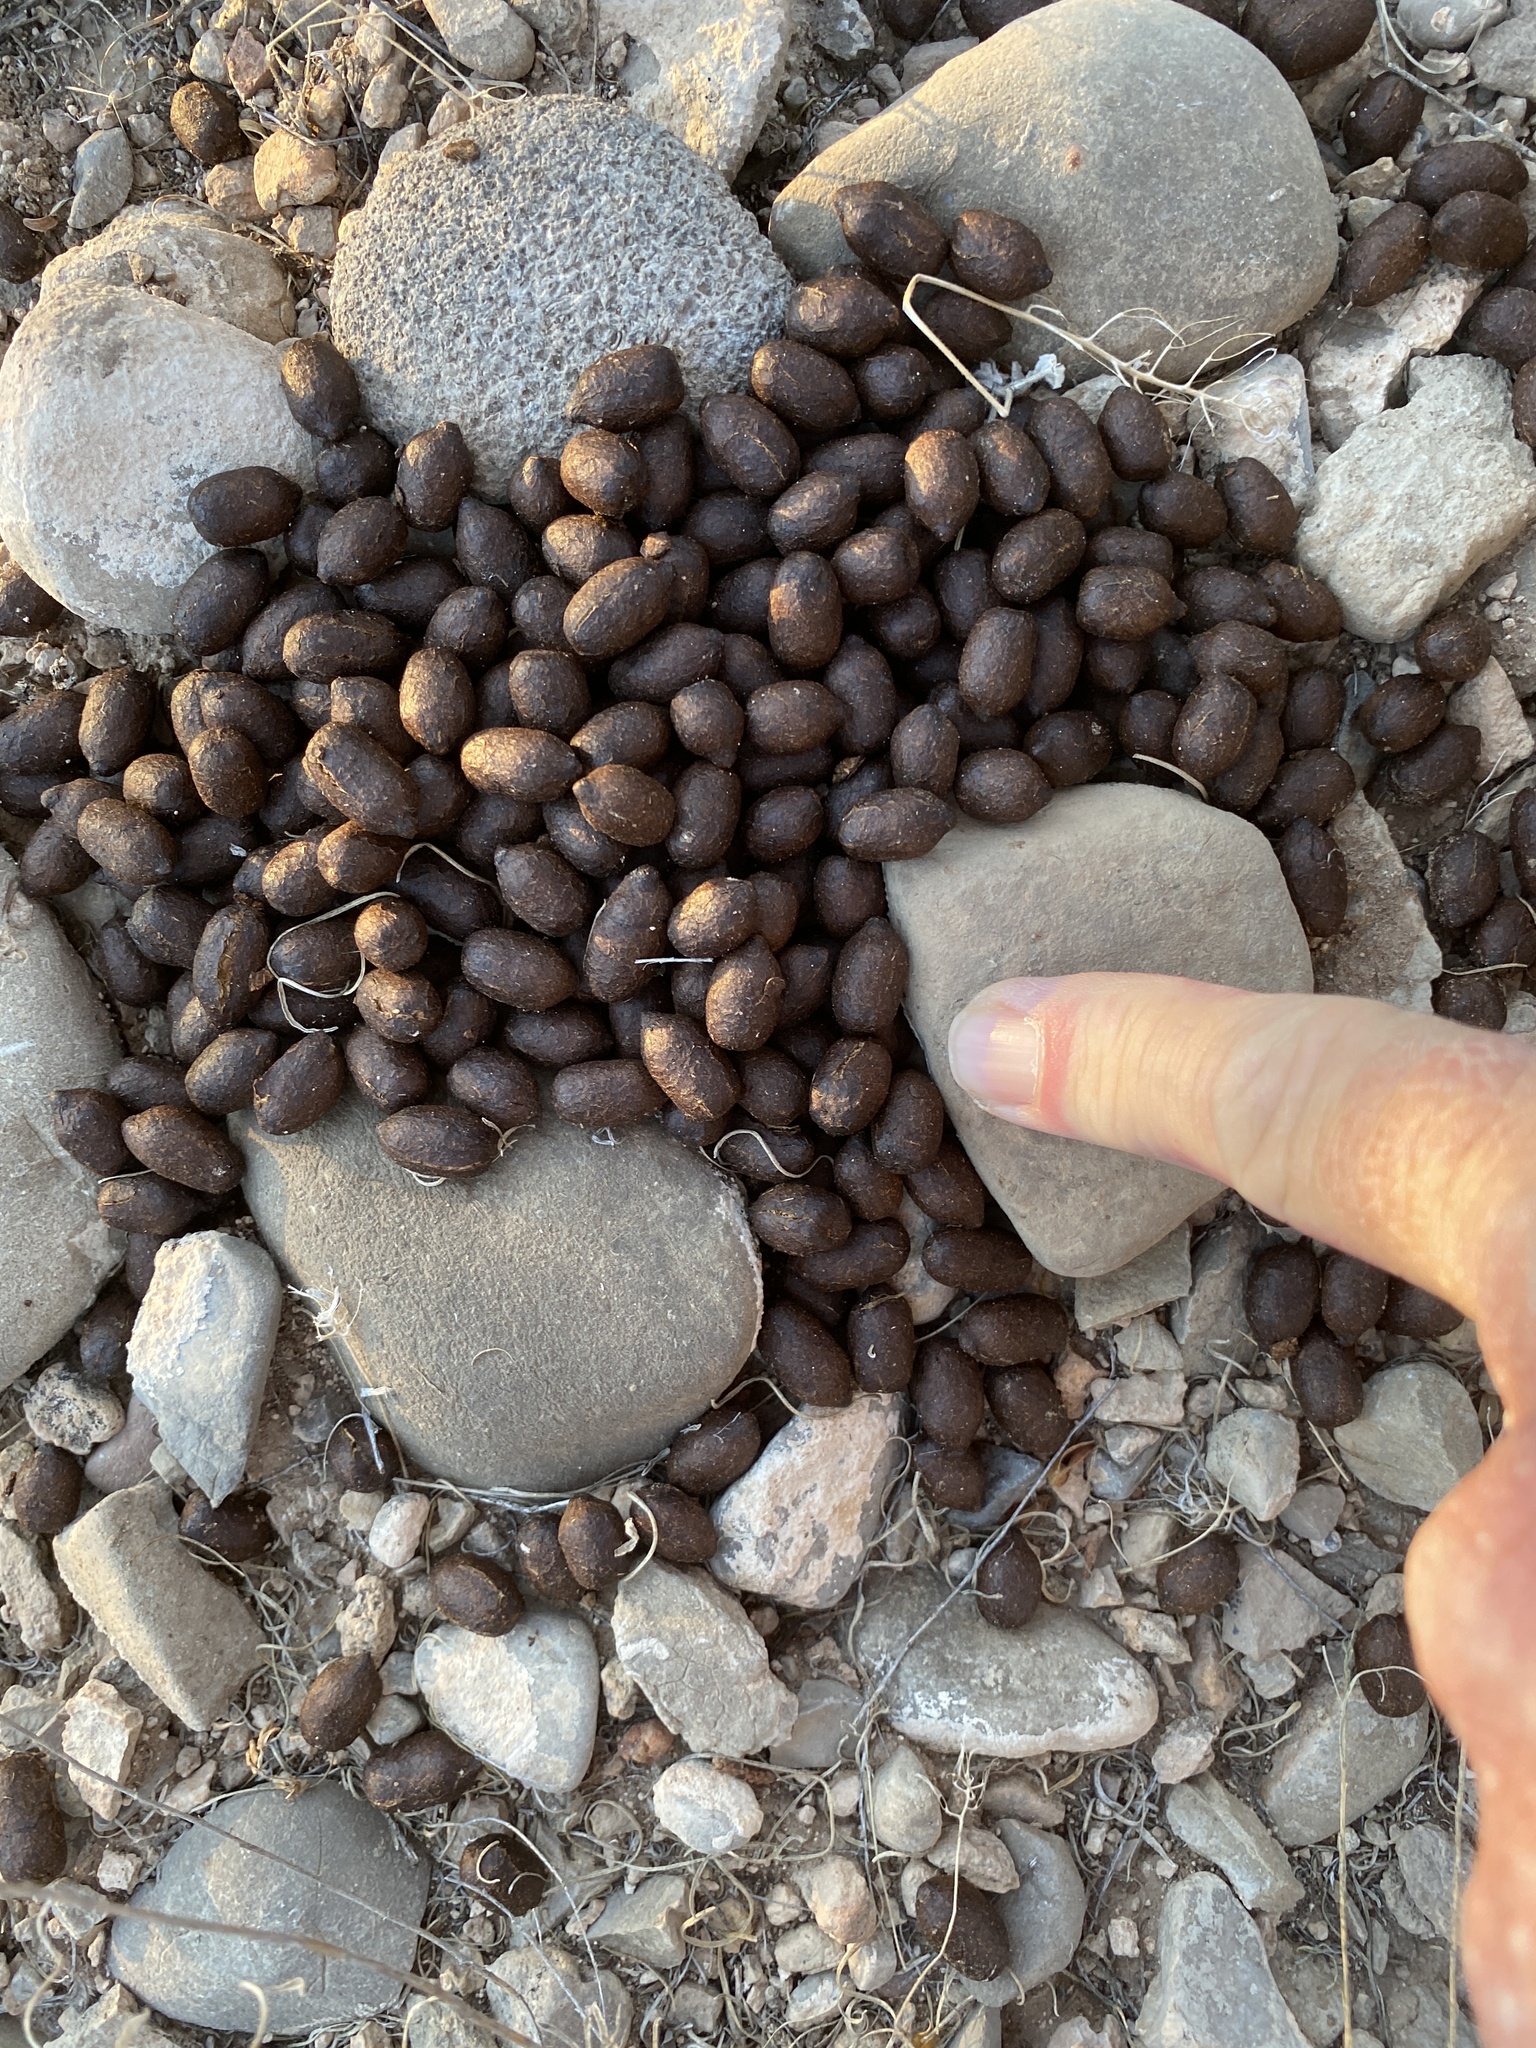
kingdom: Animalia
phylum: Chordata
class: Mammalia
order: Artiodactyla
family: Cervidae
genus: Odocoileus
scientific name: Odocoileus hemionus
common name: Mule deer
